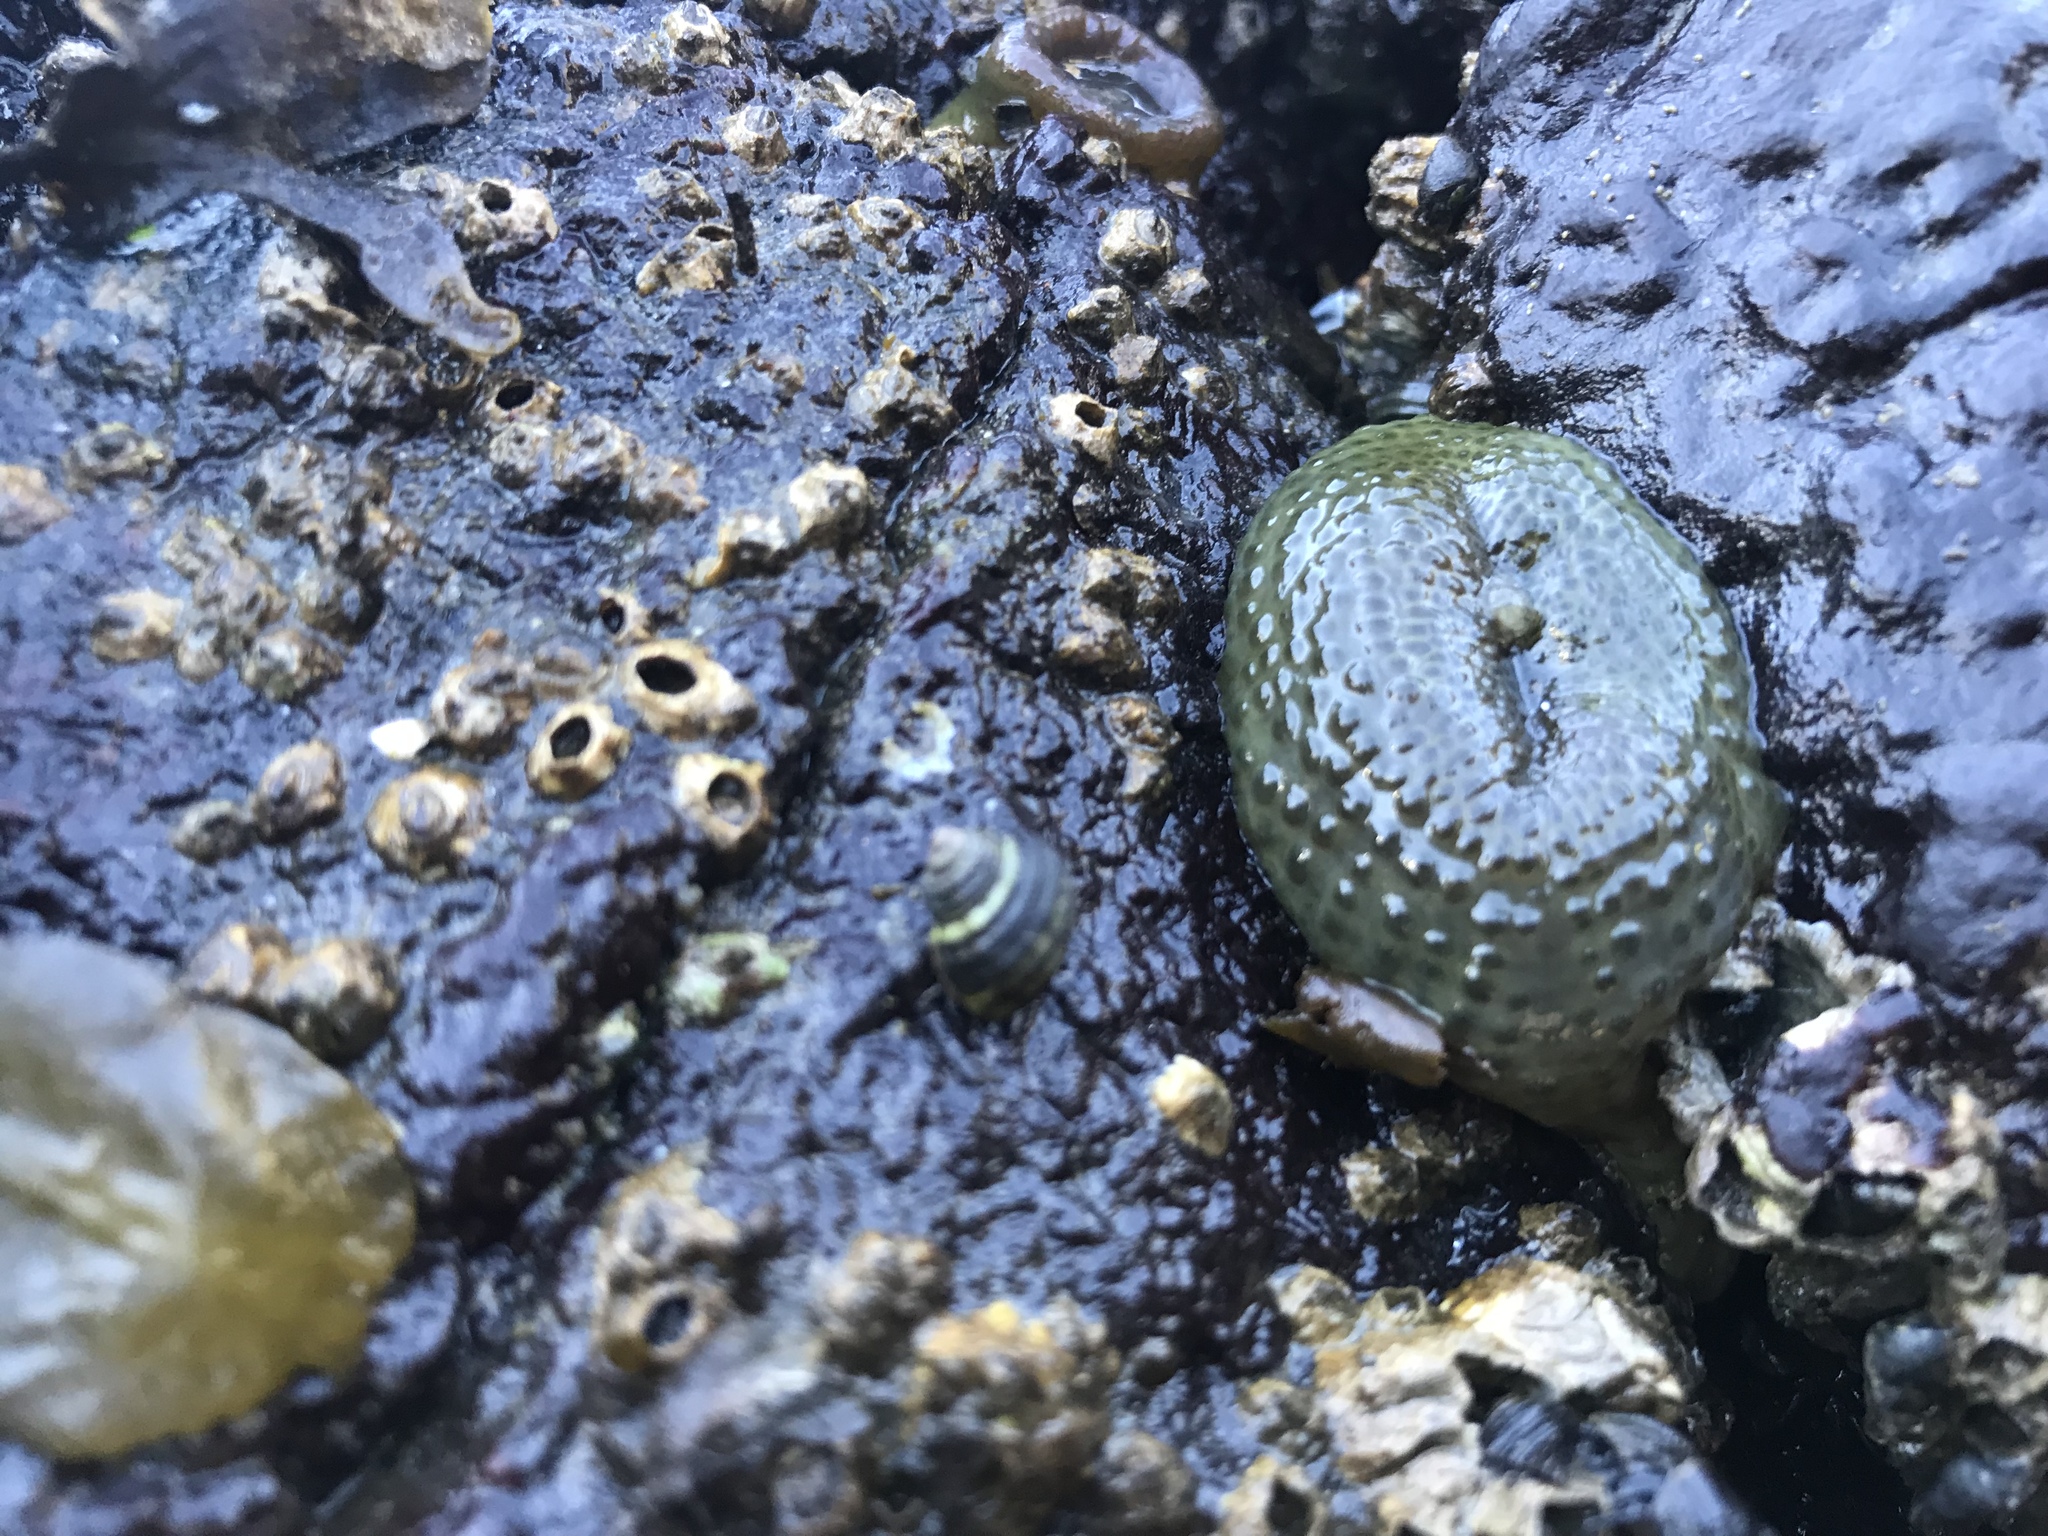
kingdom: Animalia
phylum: Cnidaria
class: Anthozoa
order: Actiniaria
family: Actiniidae
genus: Anthopleura
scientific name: Anthopleura elegantissima
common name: Clonal anemone
